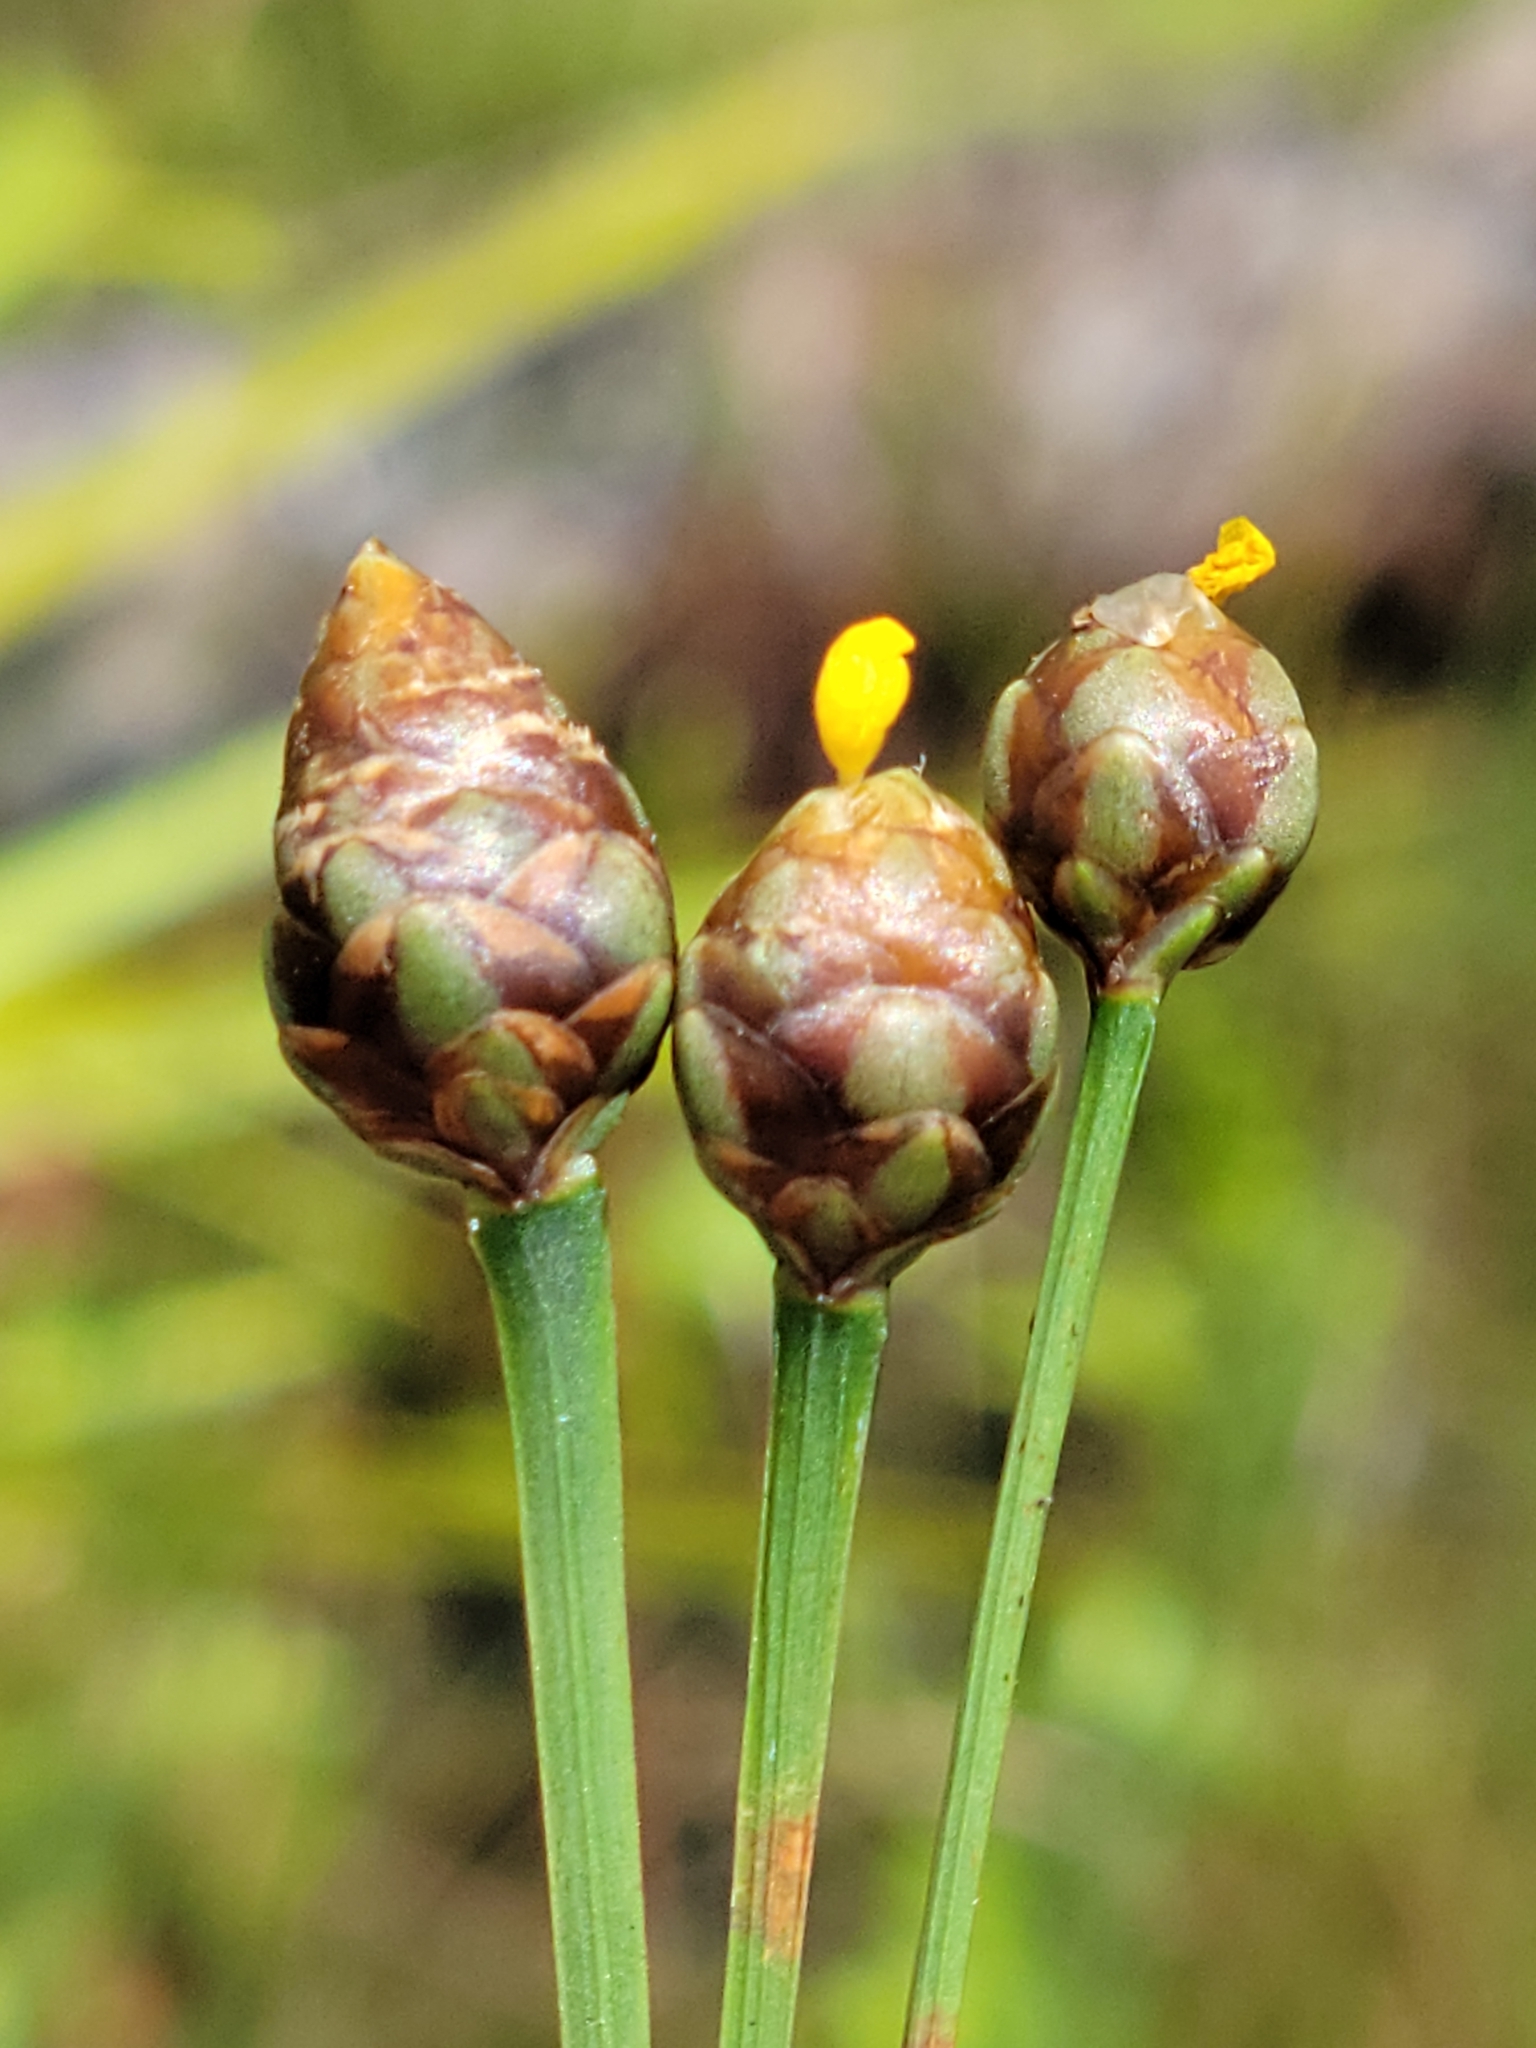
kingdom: Plantae
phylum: Tracheophyta
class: Liliopsida
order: Poales
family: Xyridaceae
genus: Xyris
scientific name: Xyris floridana
